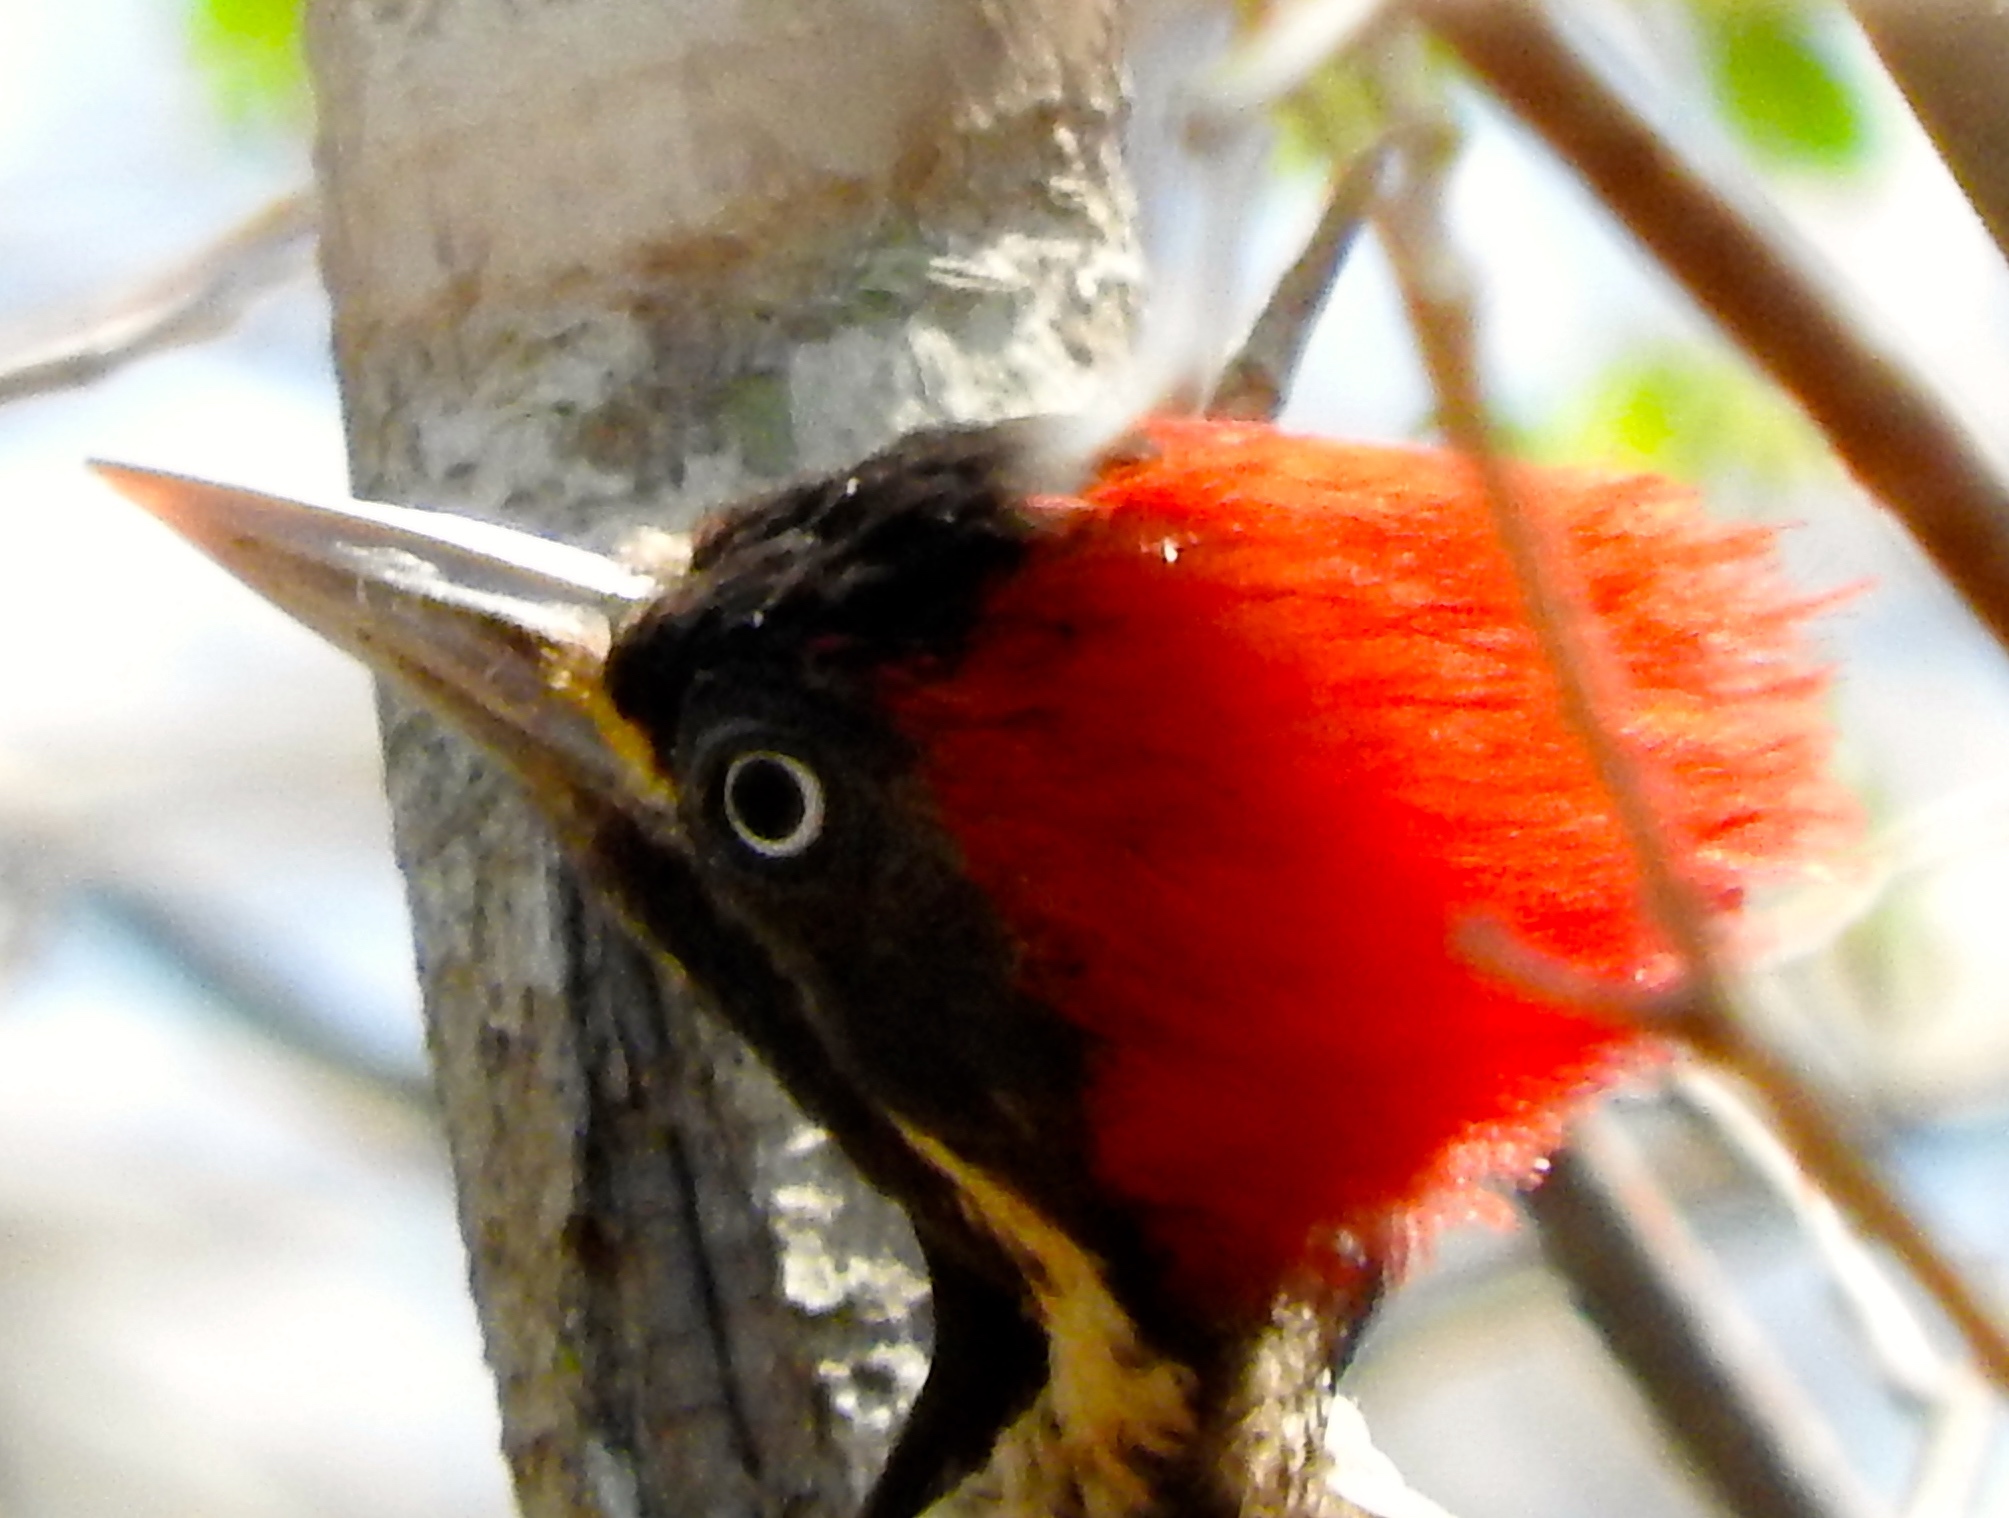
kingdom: Animalia
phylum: Chordata
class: Aves
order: Piciformes
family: Picidae
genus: Dryocopus
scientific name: Dryocopus lineatus
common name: Lineated woodpecker
